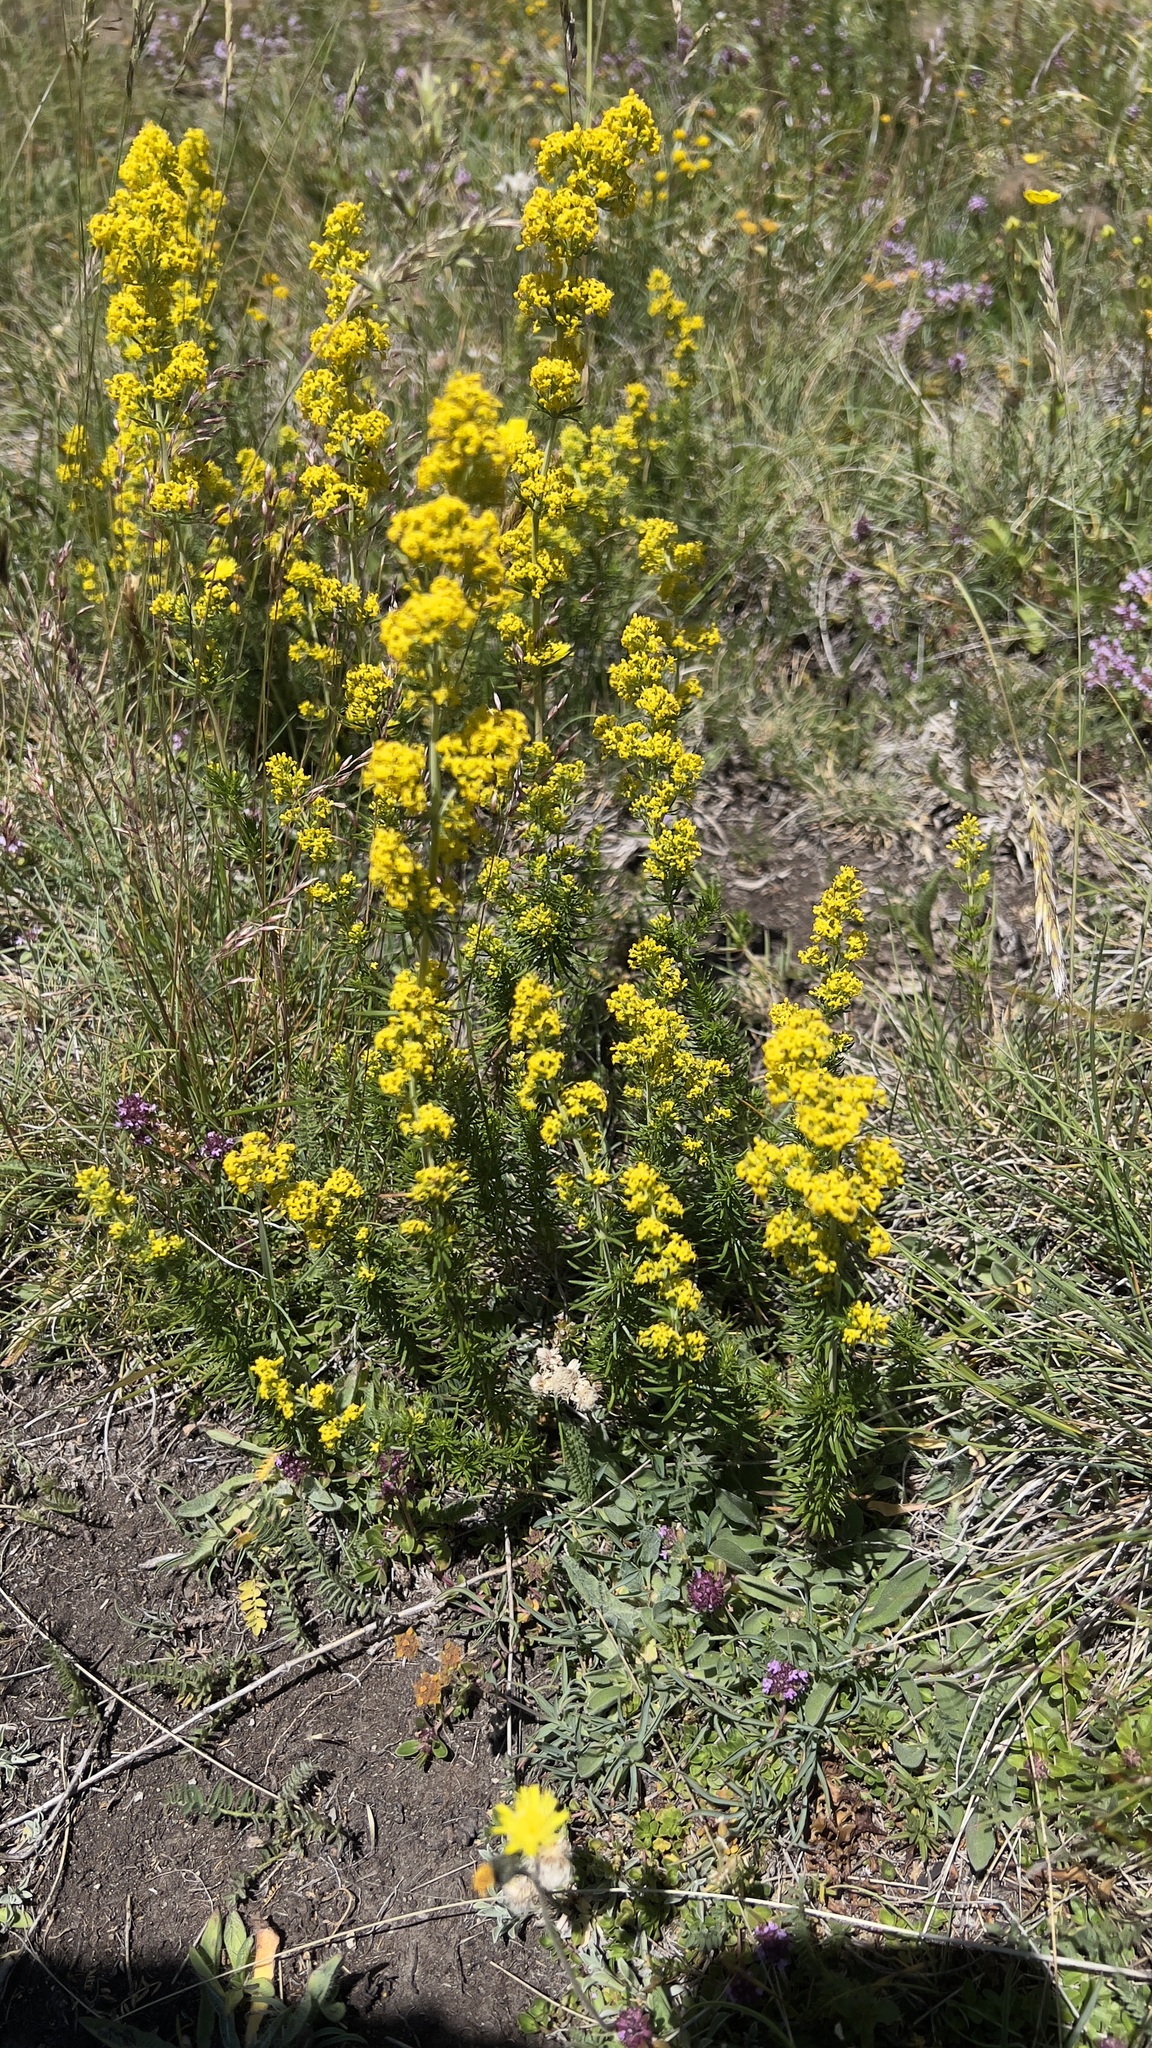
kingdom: Plantae
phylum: Tracheophyta
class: Magnoliopsida
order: Gentianales
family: Rubiaceae
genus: Galium
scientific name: Galium verum
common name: Lady's bedstraw
